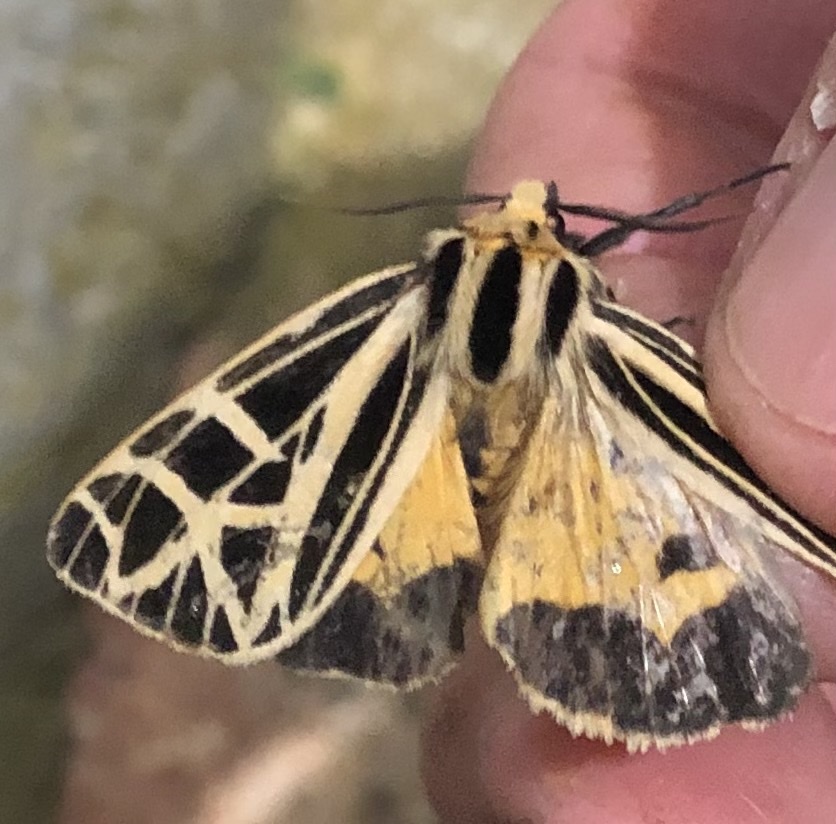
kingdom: Animalia
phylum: Arthropoda
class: Insecta
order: Lepidoptera
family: Erebidae
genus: Apantesis
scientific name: Apantesis
